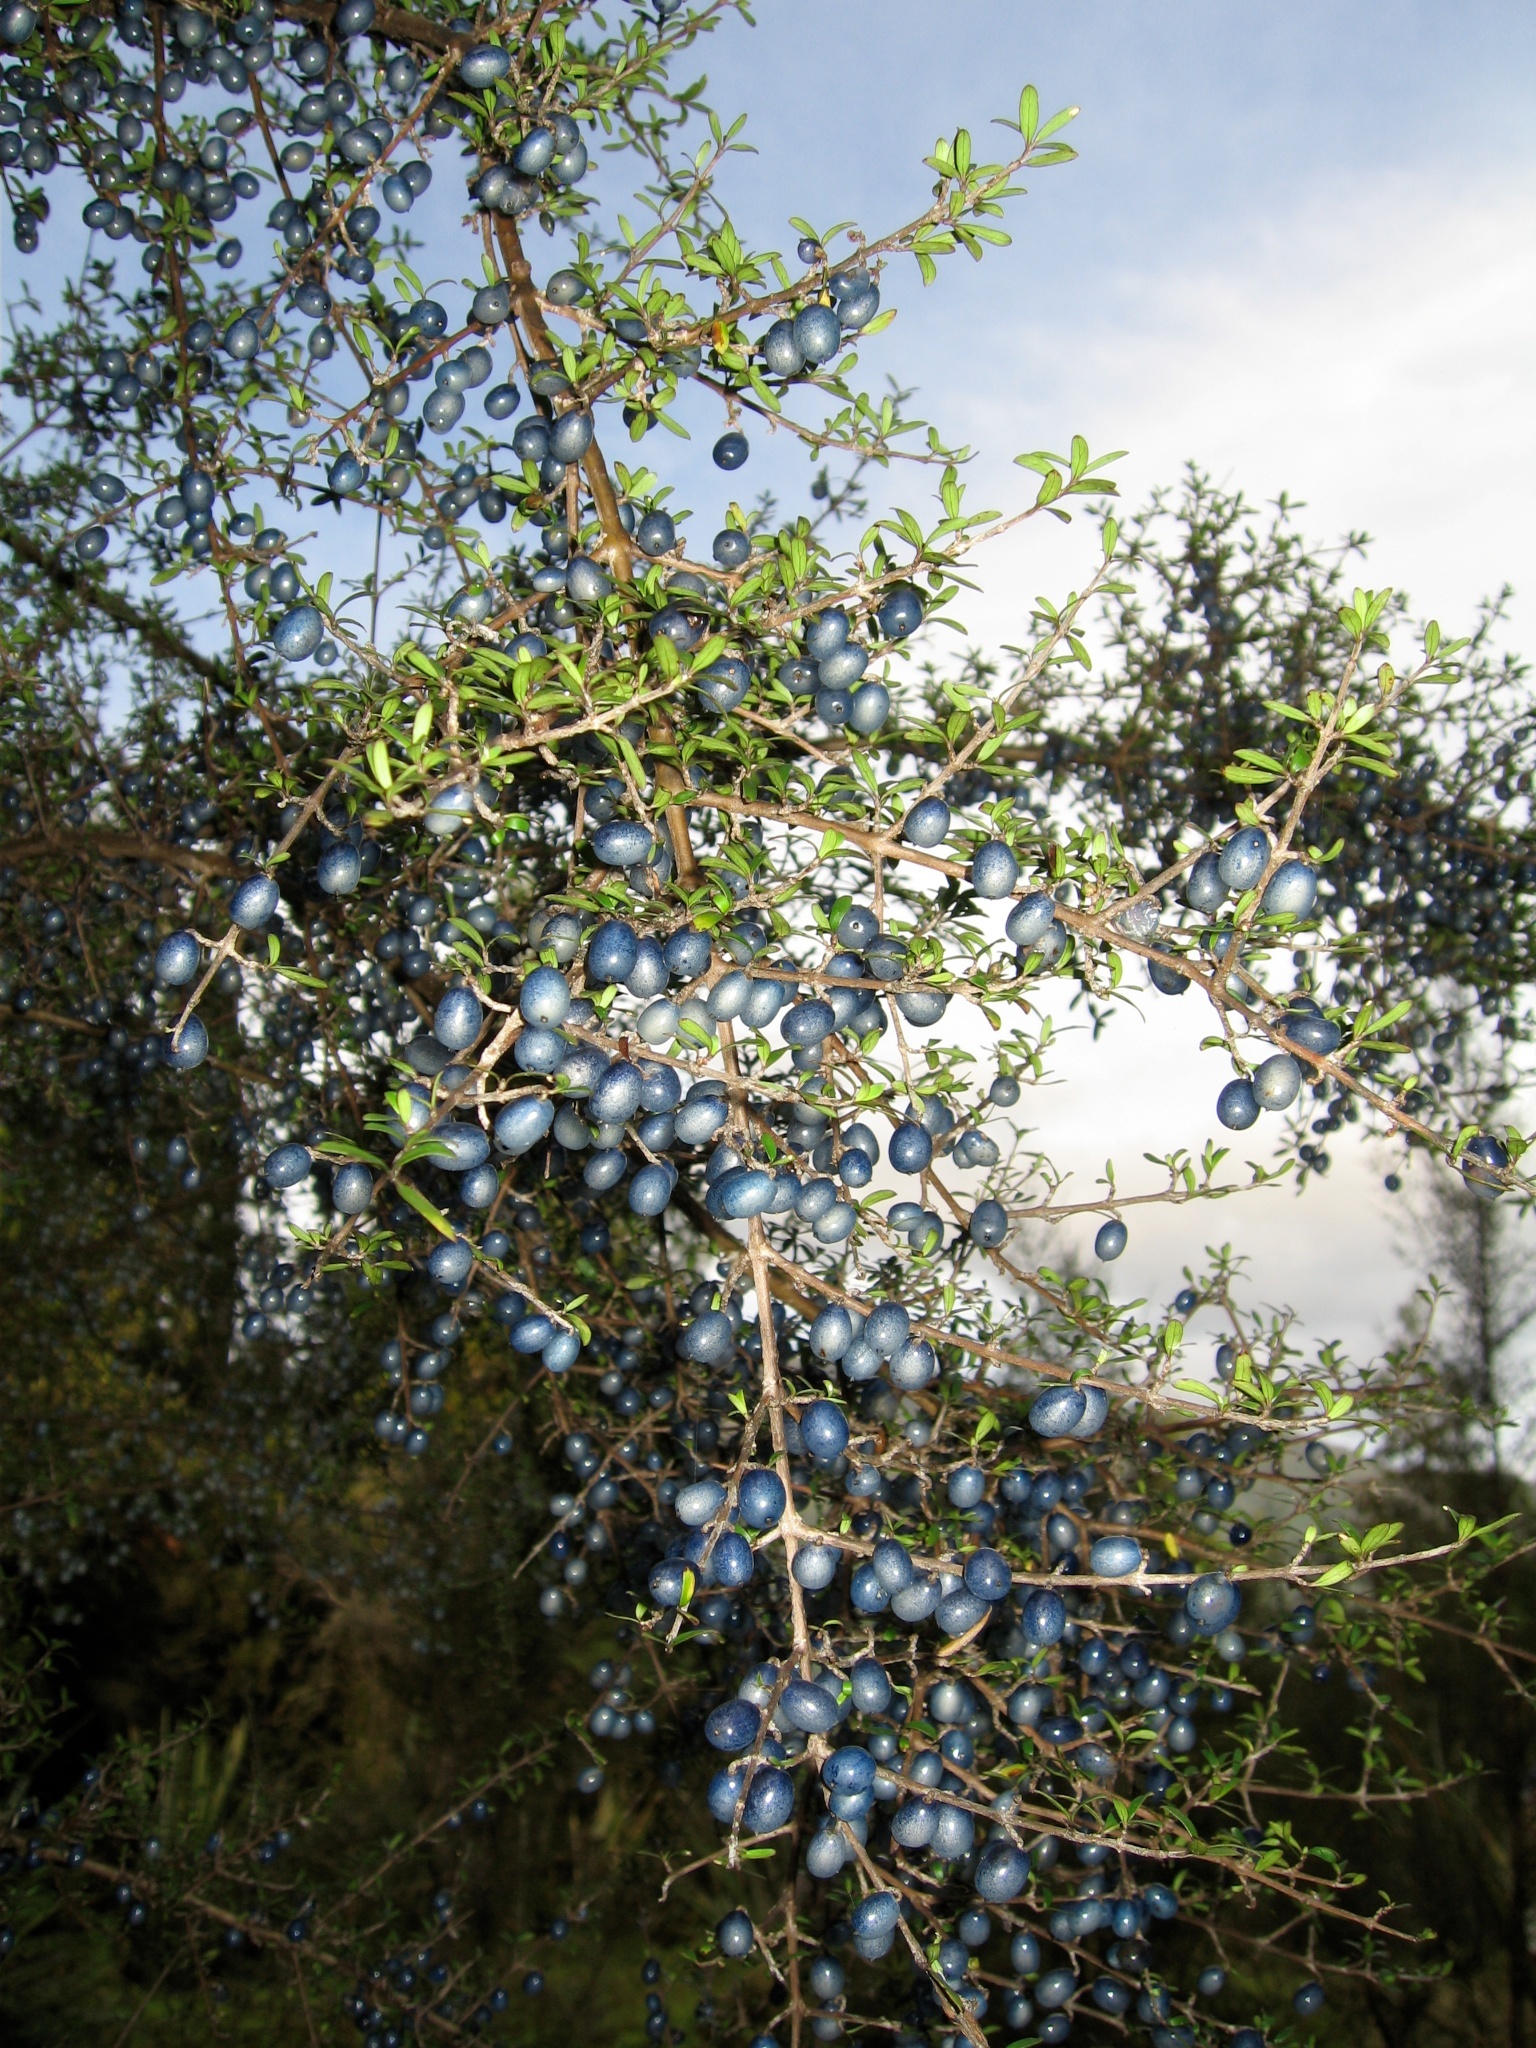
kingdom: Plantae
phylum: Tracheophyta
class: Magnoliopsida
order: Gentianales
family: Rubiaceae
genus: Coprosma
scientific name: Coprosma propinqua
